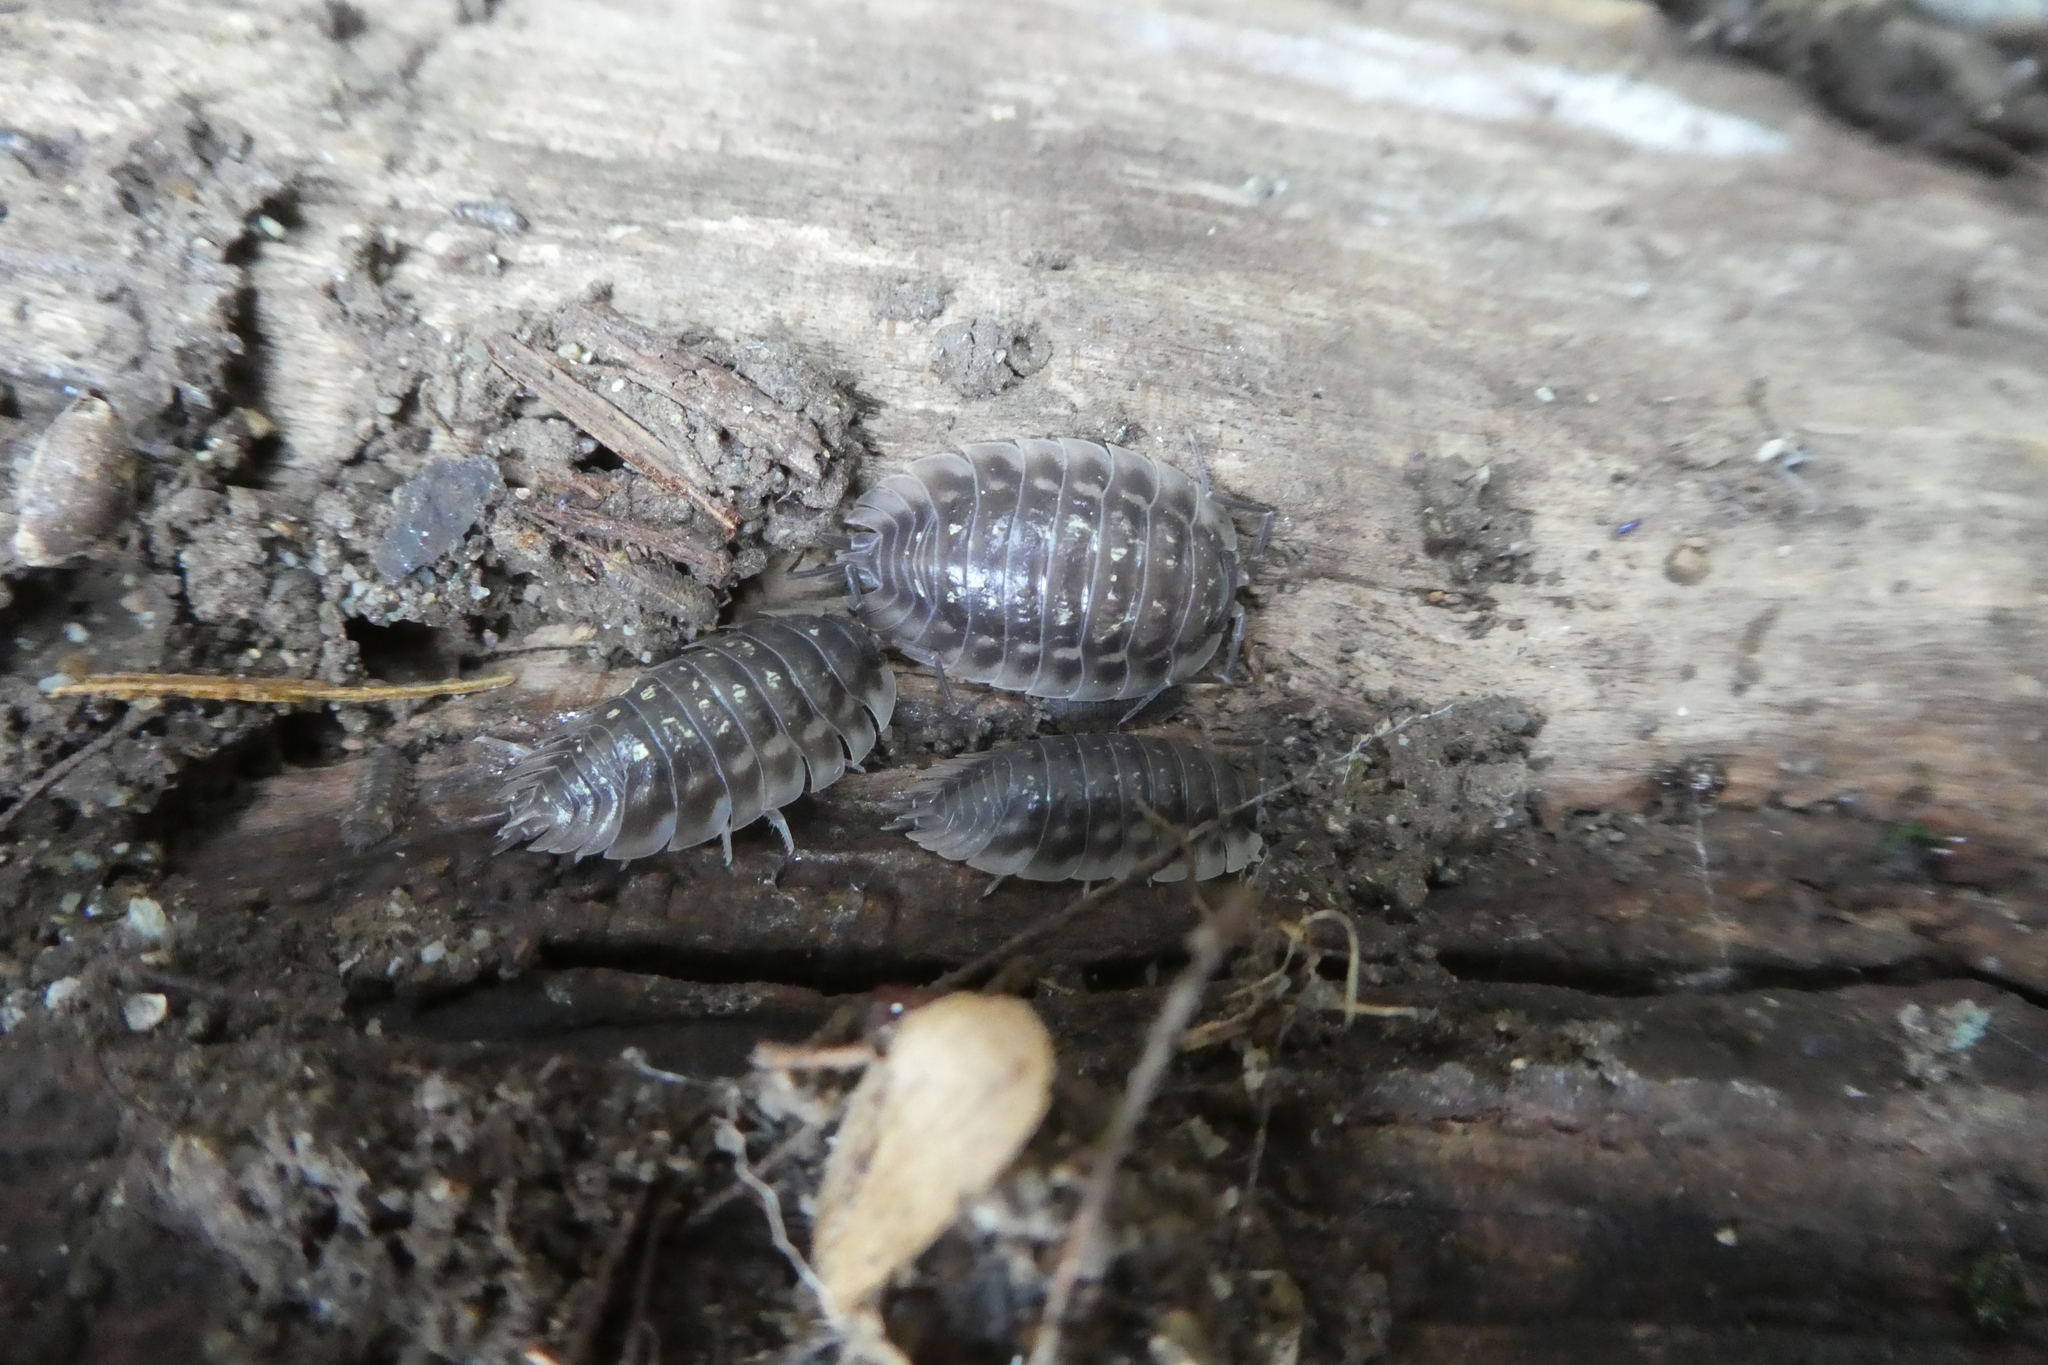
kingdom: Animalia
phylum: Arthropoda
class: Malacostraca
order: Isopoda
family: Oniscidae
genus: Oniscus
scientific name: Oniscus asellus
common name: Common shiny woodlouse
